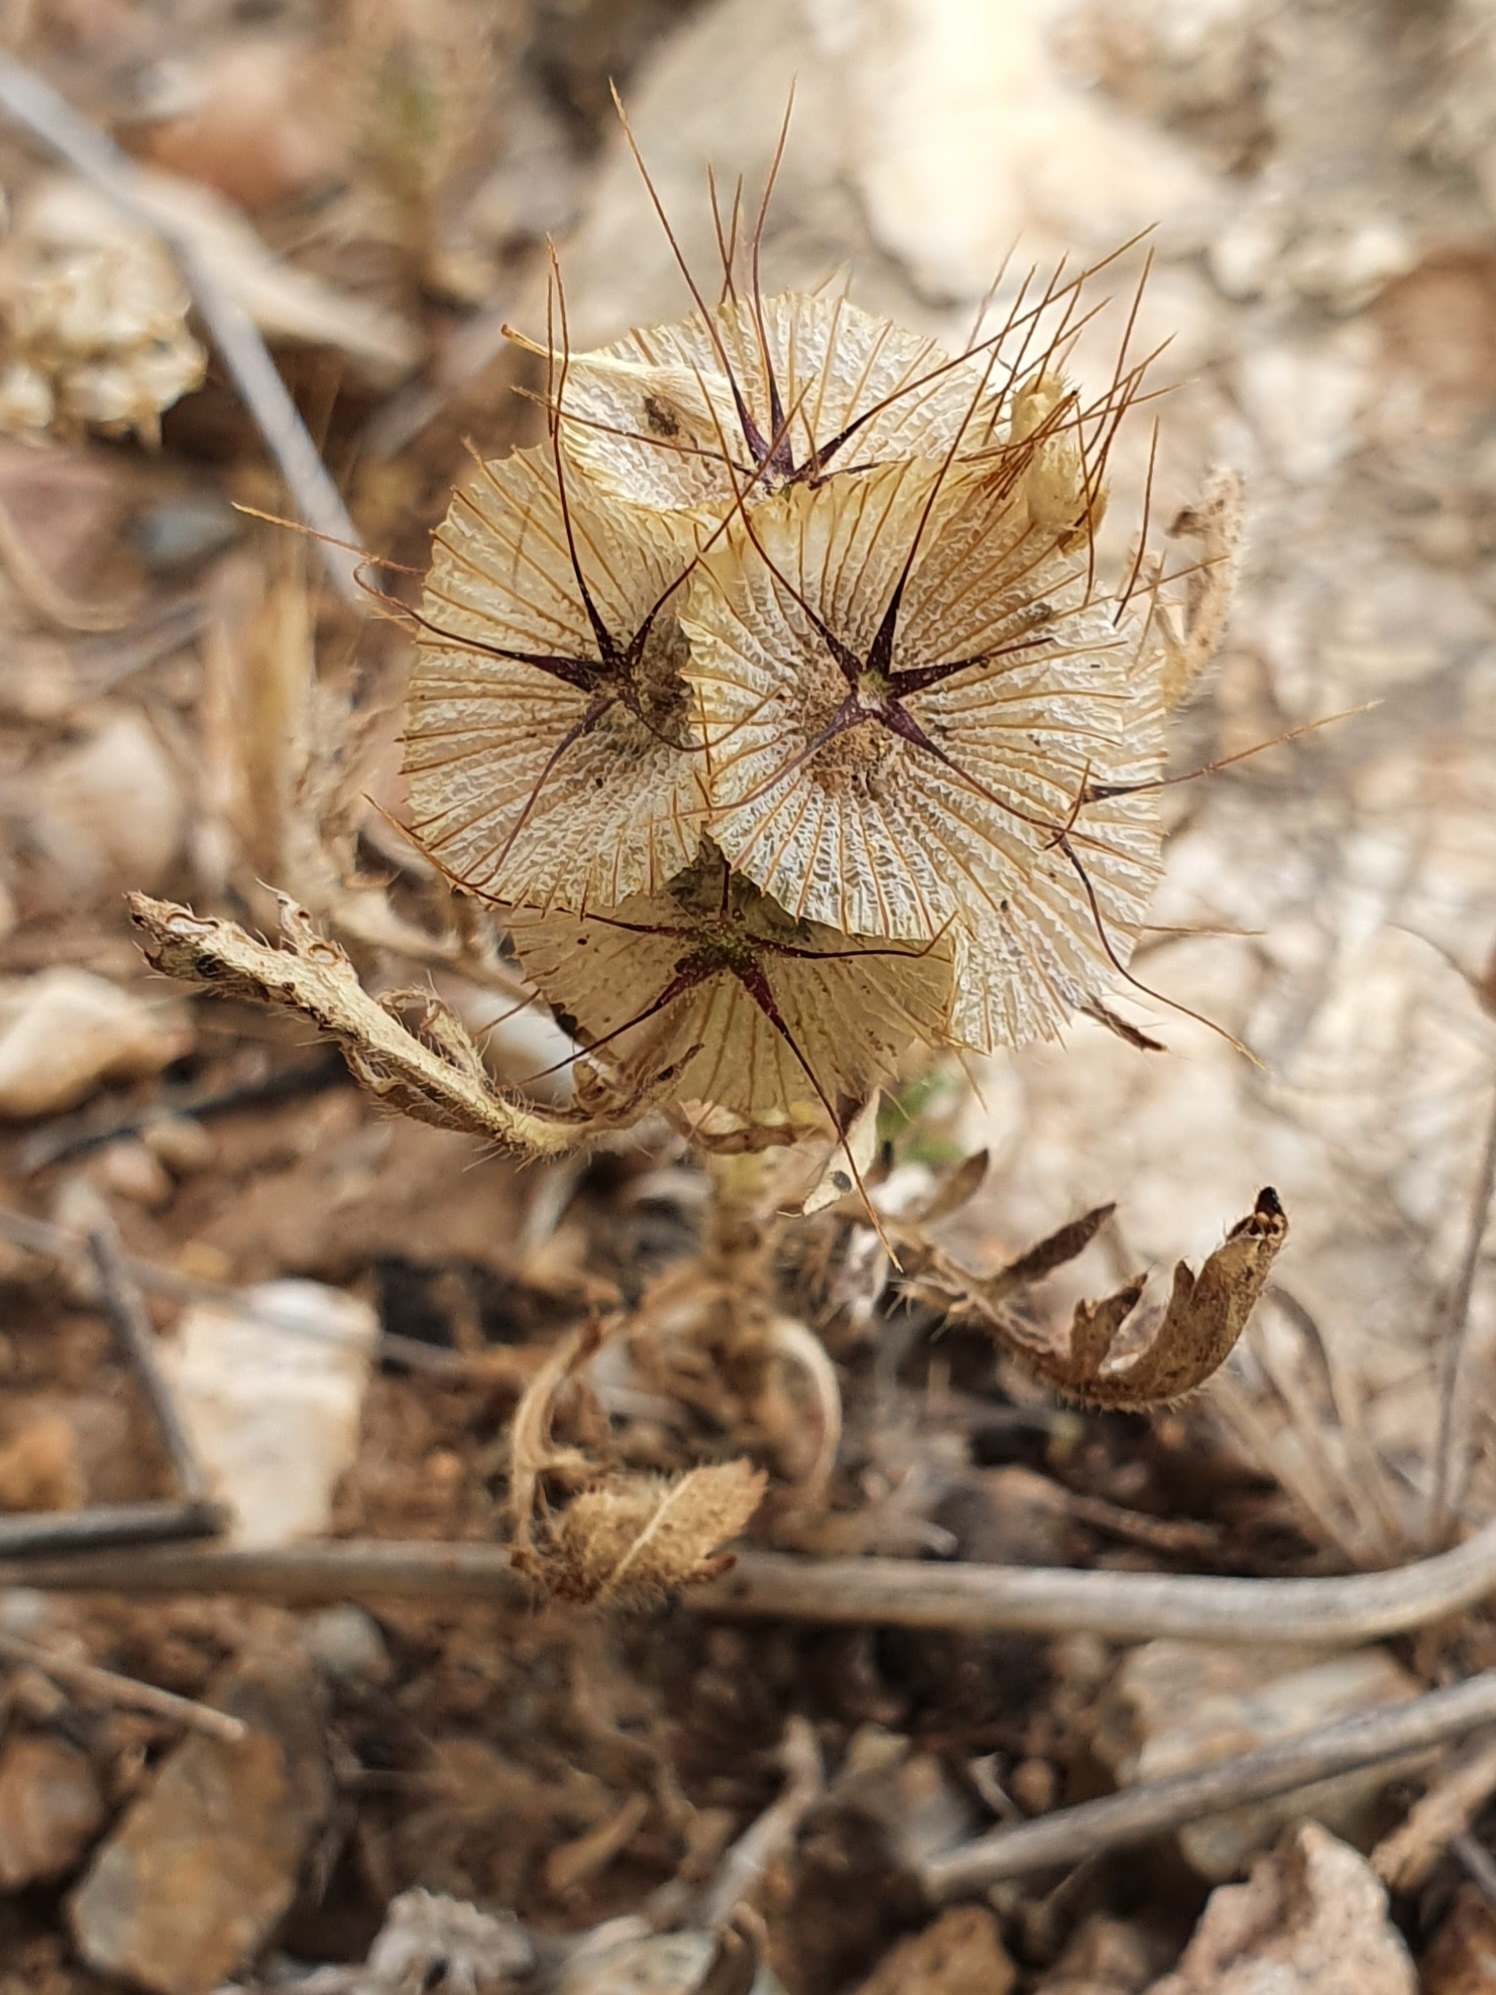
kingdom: Plantae
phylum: Tracheophyta
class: Magnoliopsida
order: Dipsacales
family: Caprifoliaceae
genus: Lomelosia
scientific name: Lomelosia stellata
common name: Teasel
